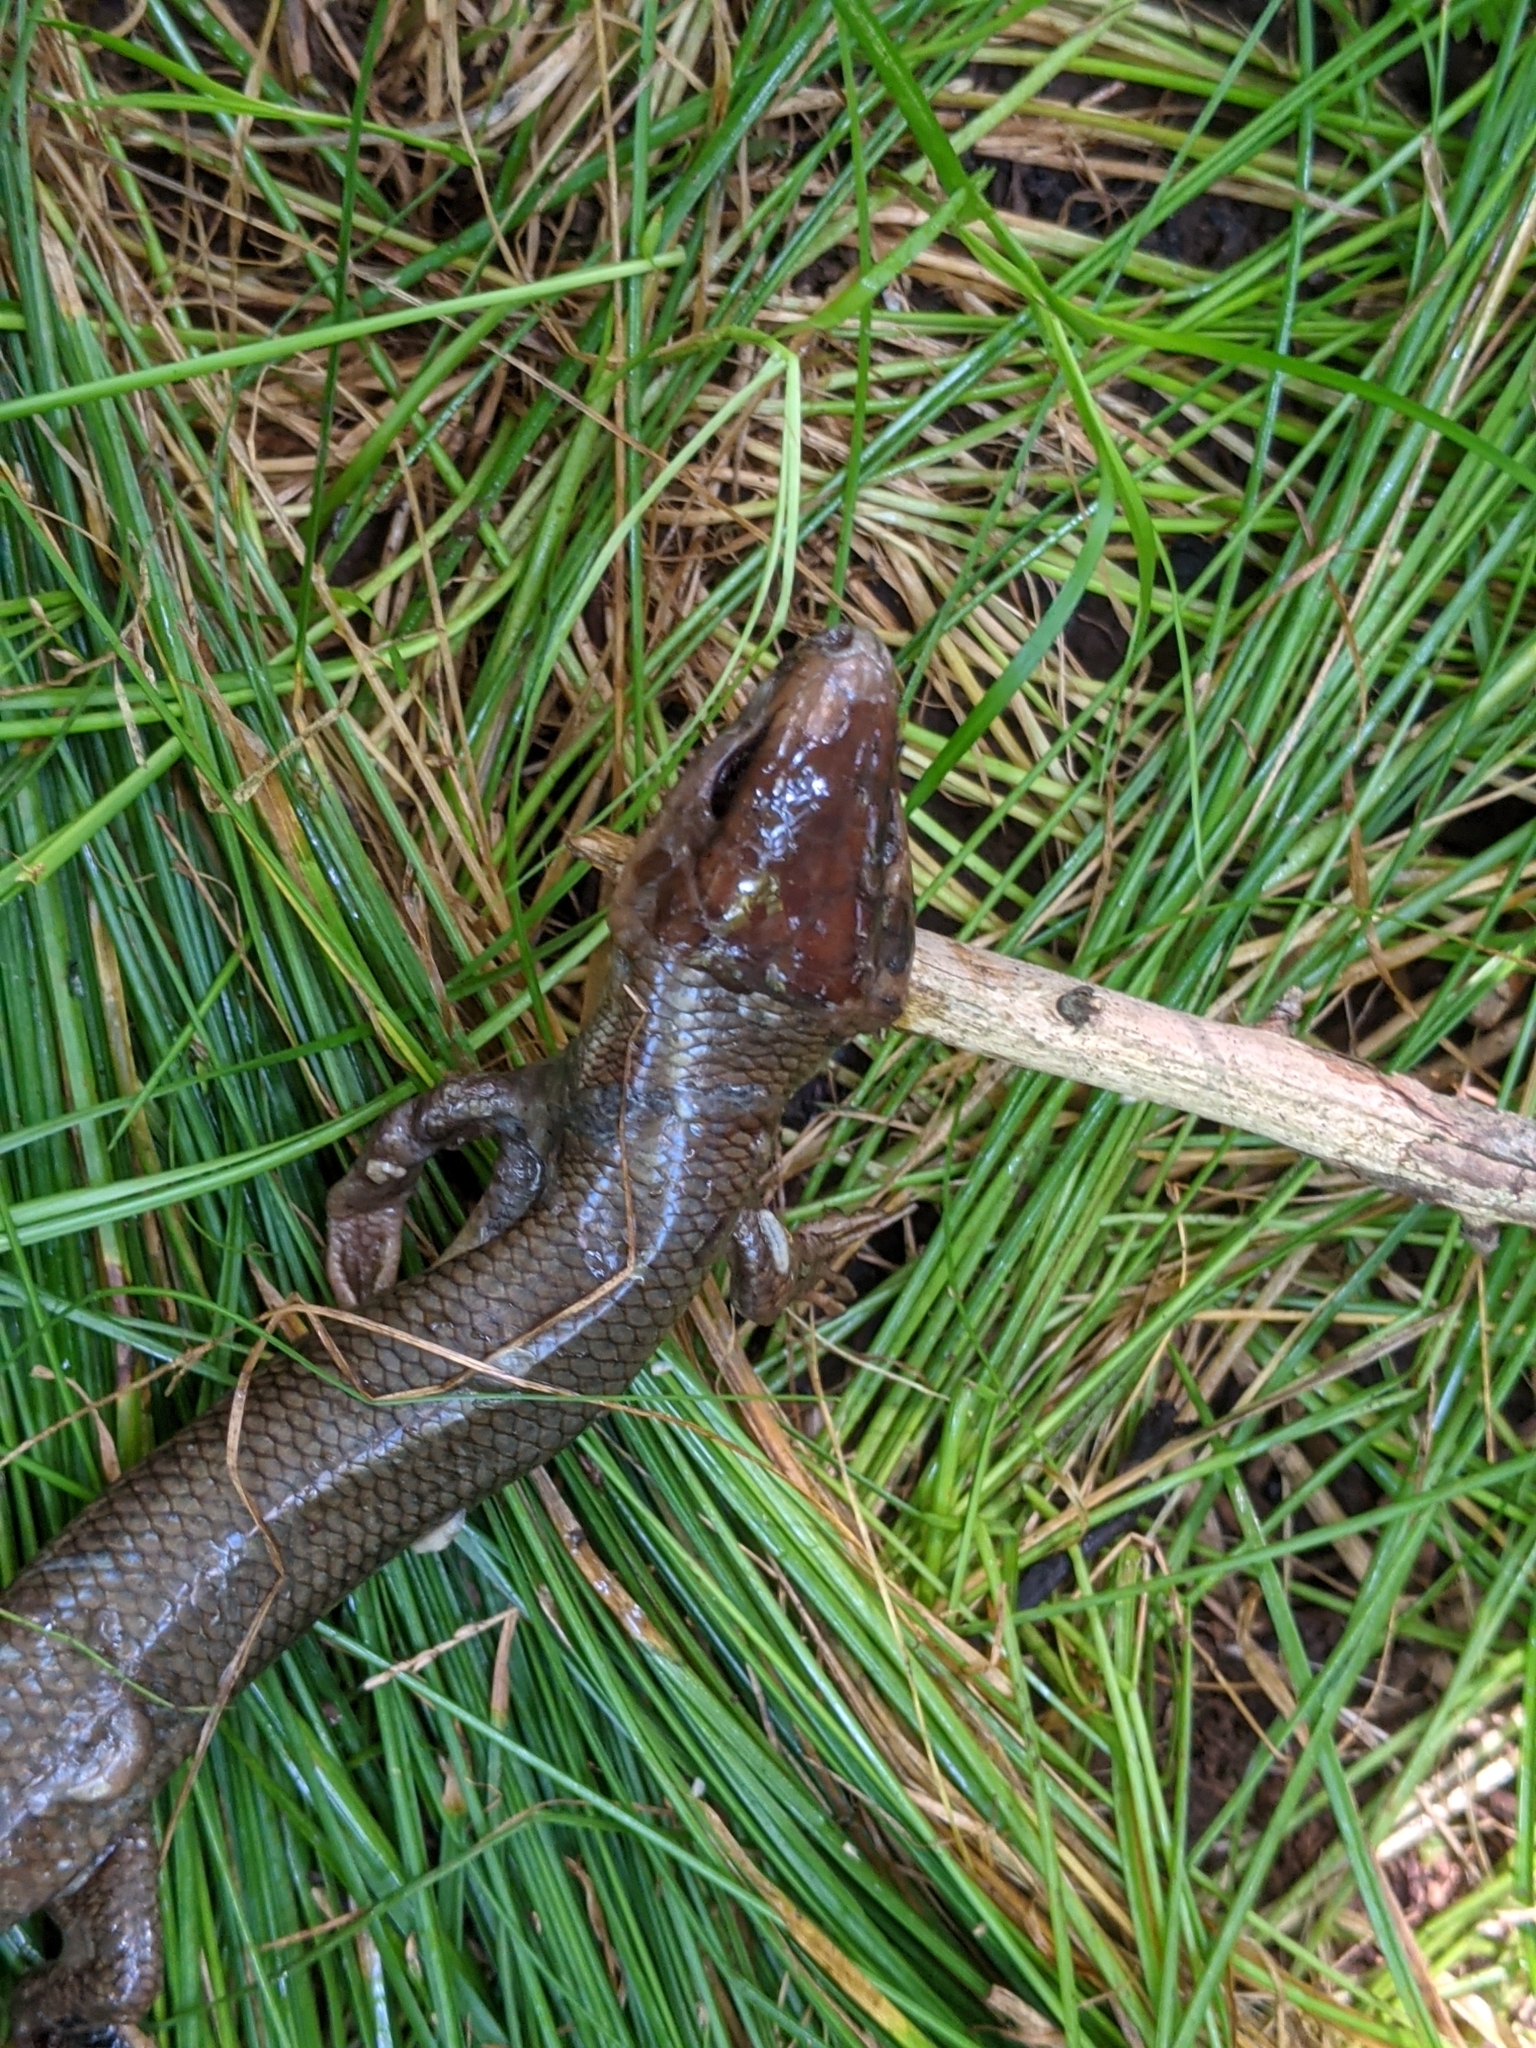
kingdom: Animalia
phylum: Chordata
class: Squamata
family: Scincidae
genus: Plestiodon
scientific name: Plestiodon laticeps
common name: Broadhead skink
